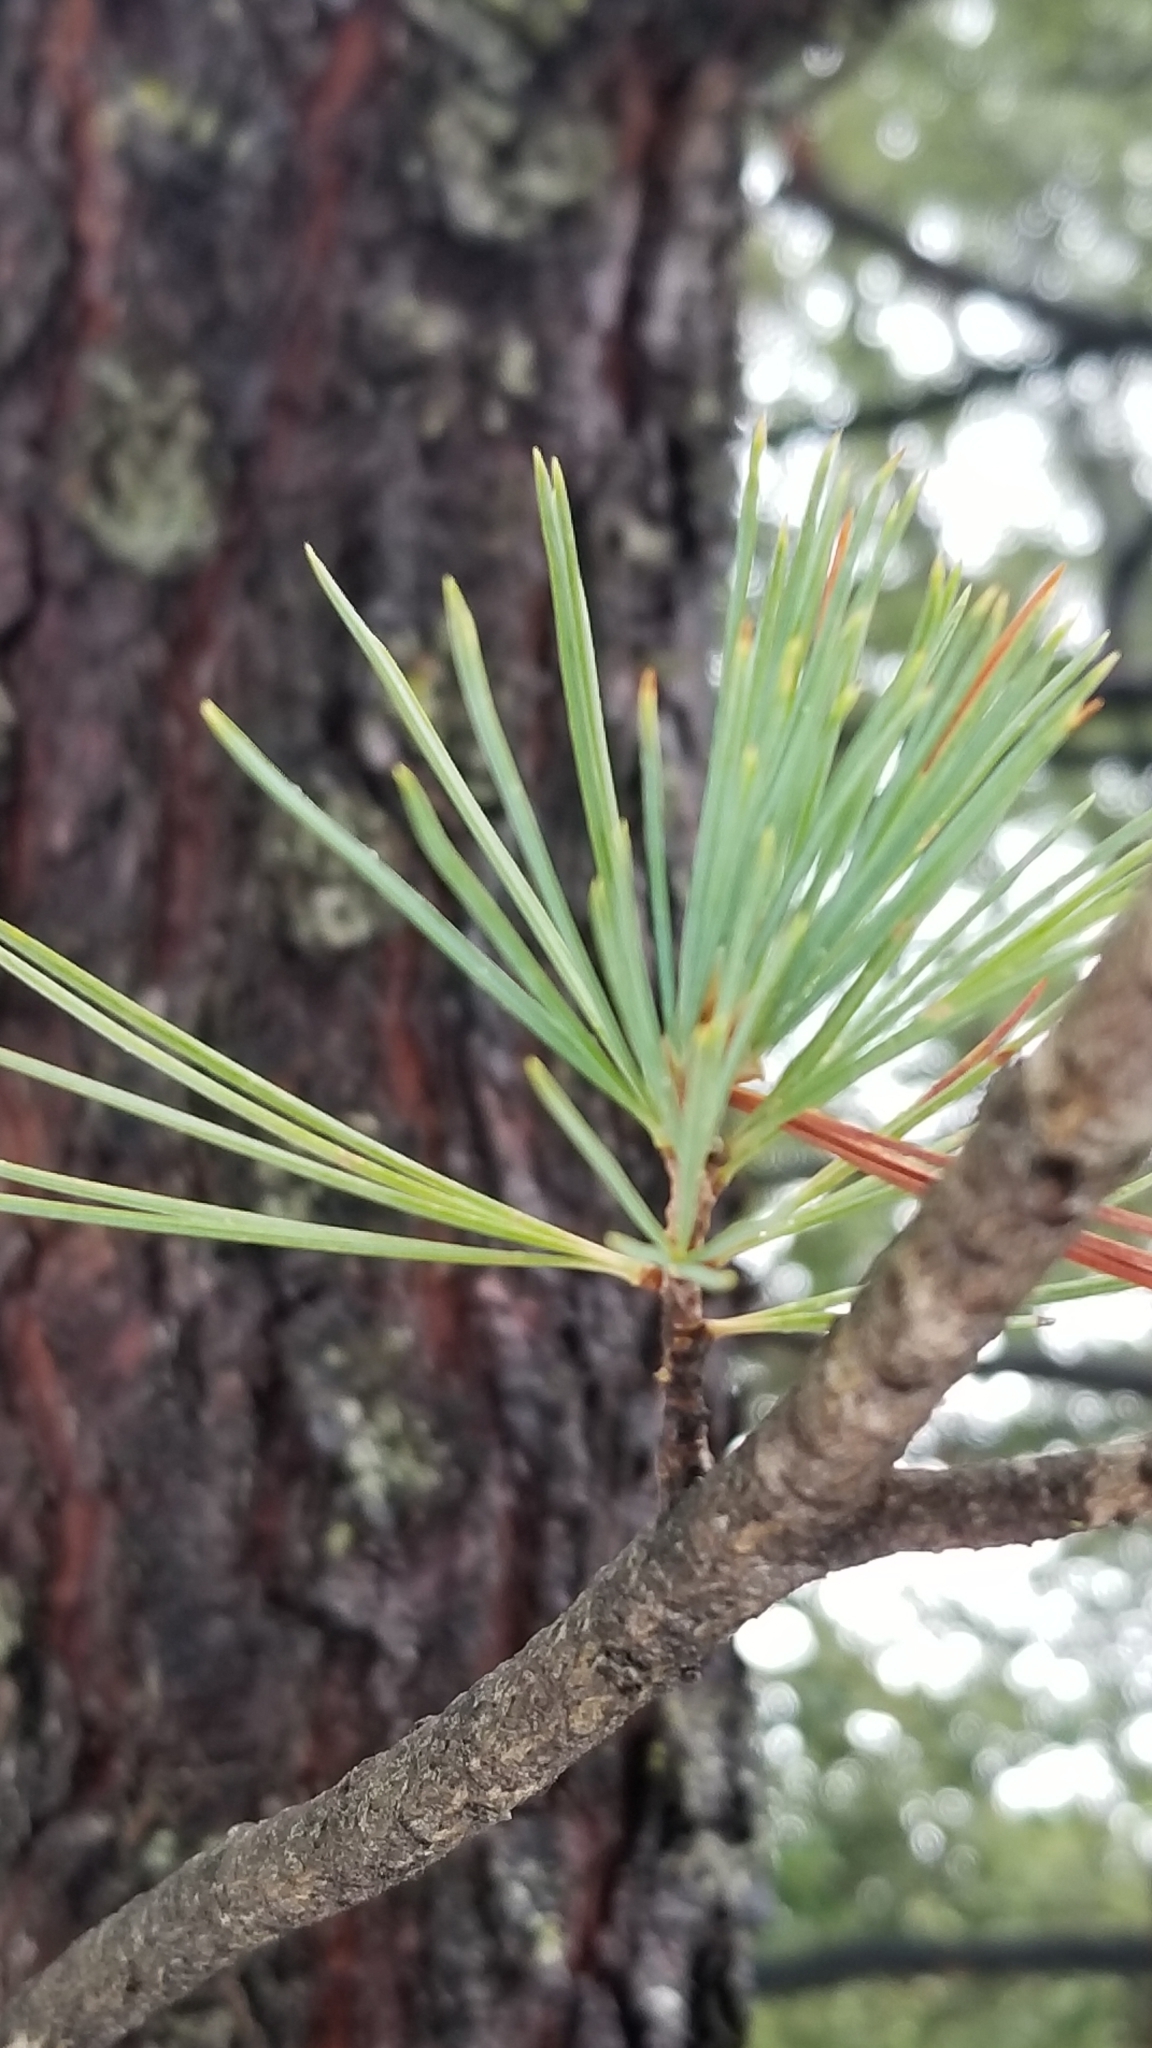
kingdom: Plantae
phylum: Tracheophyta
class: Pinopsida
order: Pinales
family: Pinaceae
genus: Pinus
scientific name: Pinus lambertiana
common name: Sugar pine
